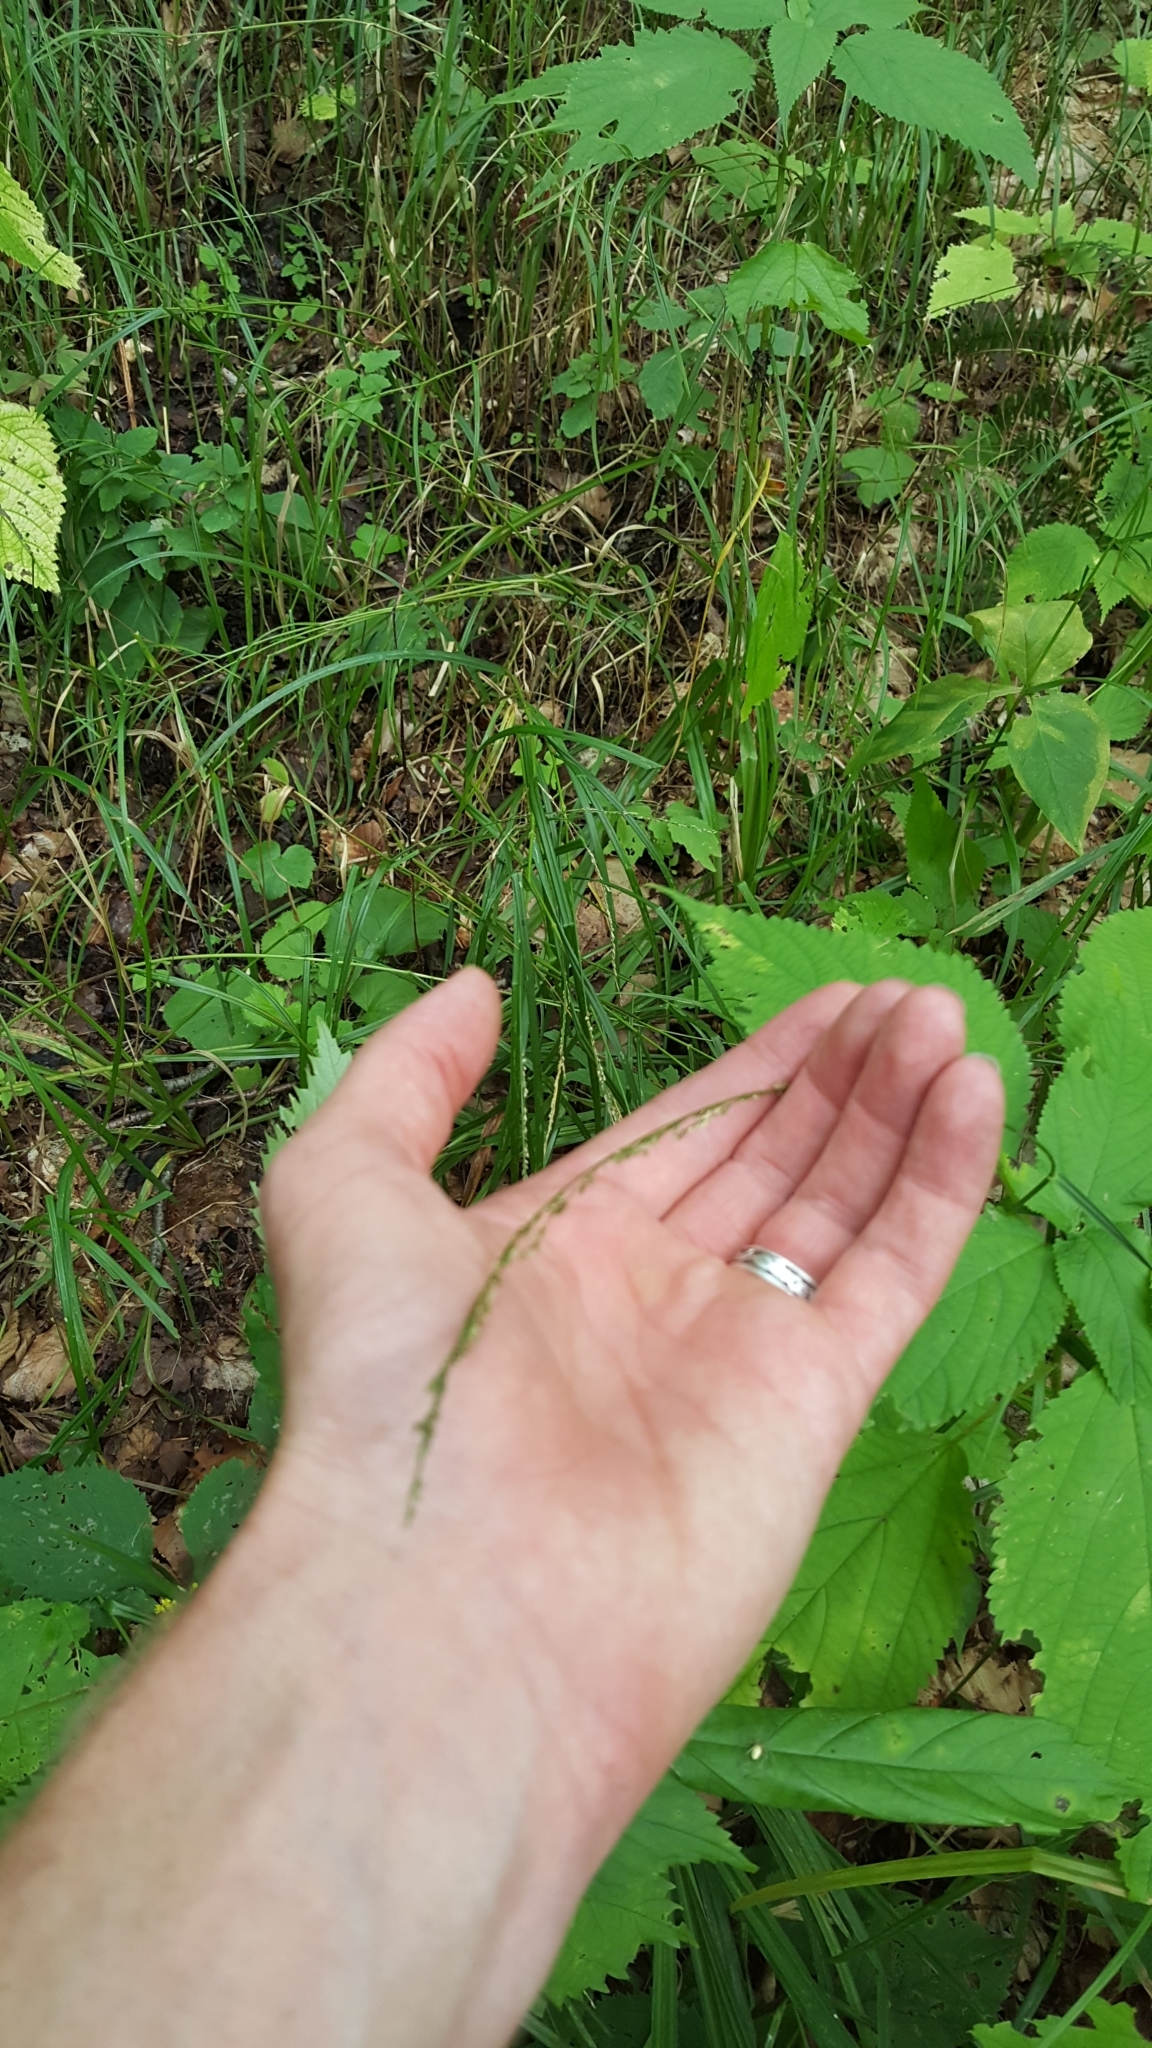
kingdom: Plantae
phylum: Tracheophyta
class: Liliopsida
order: Poales
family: Poaceae
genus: Glyceria
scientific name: Glyceria melicaria
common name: Long mannagrass
